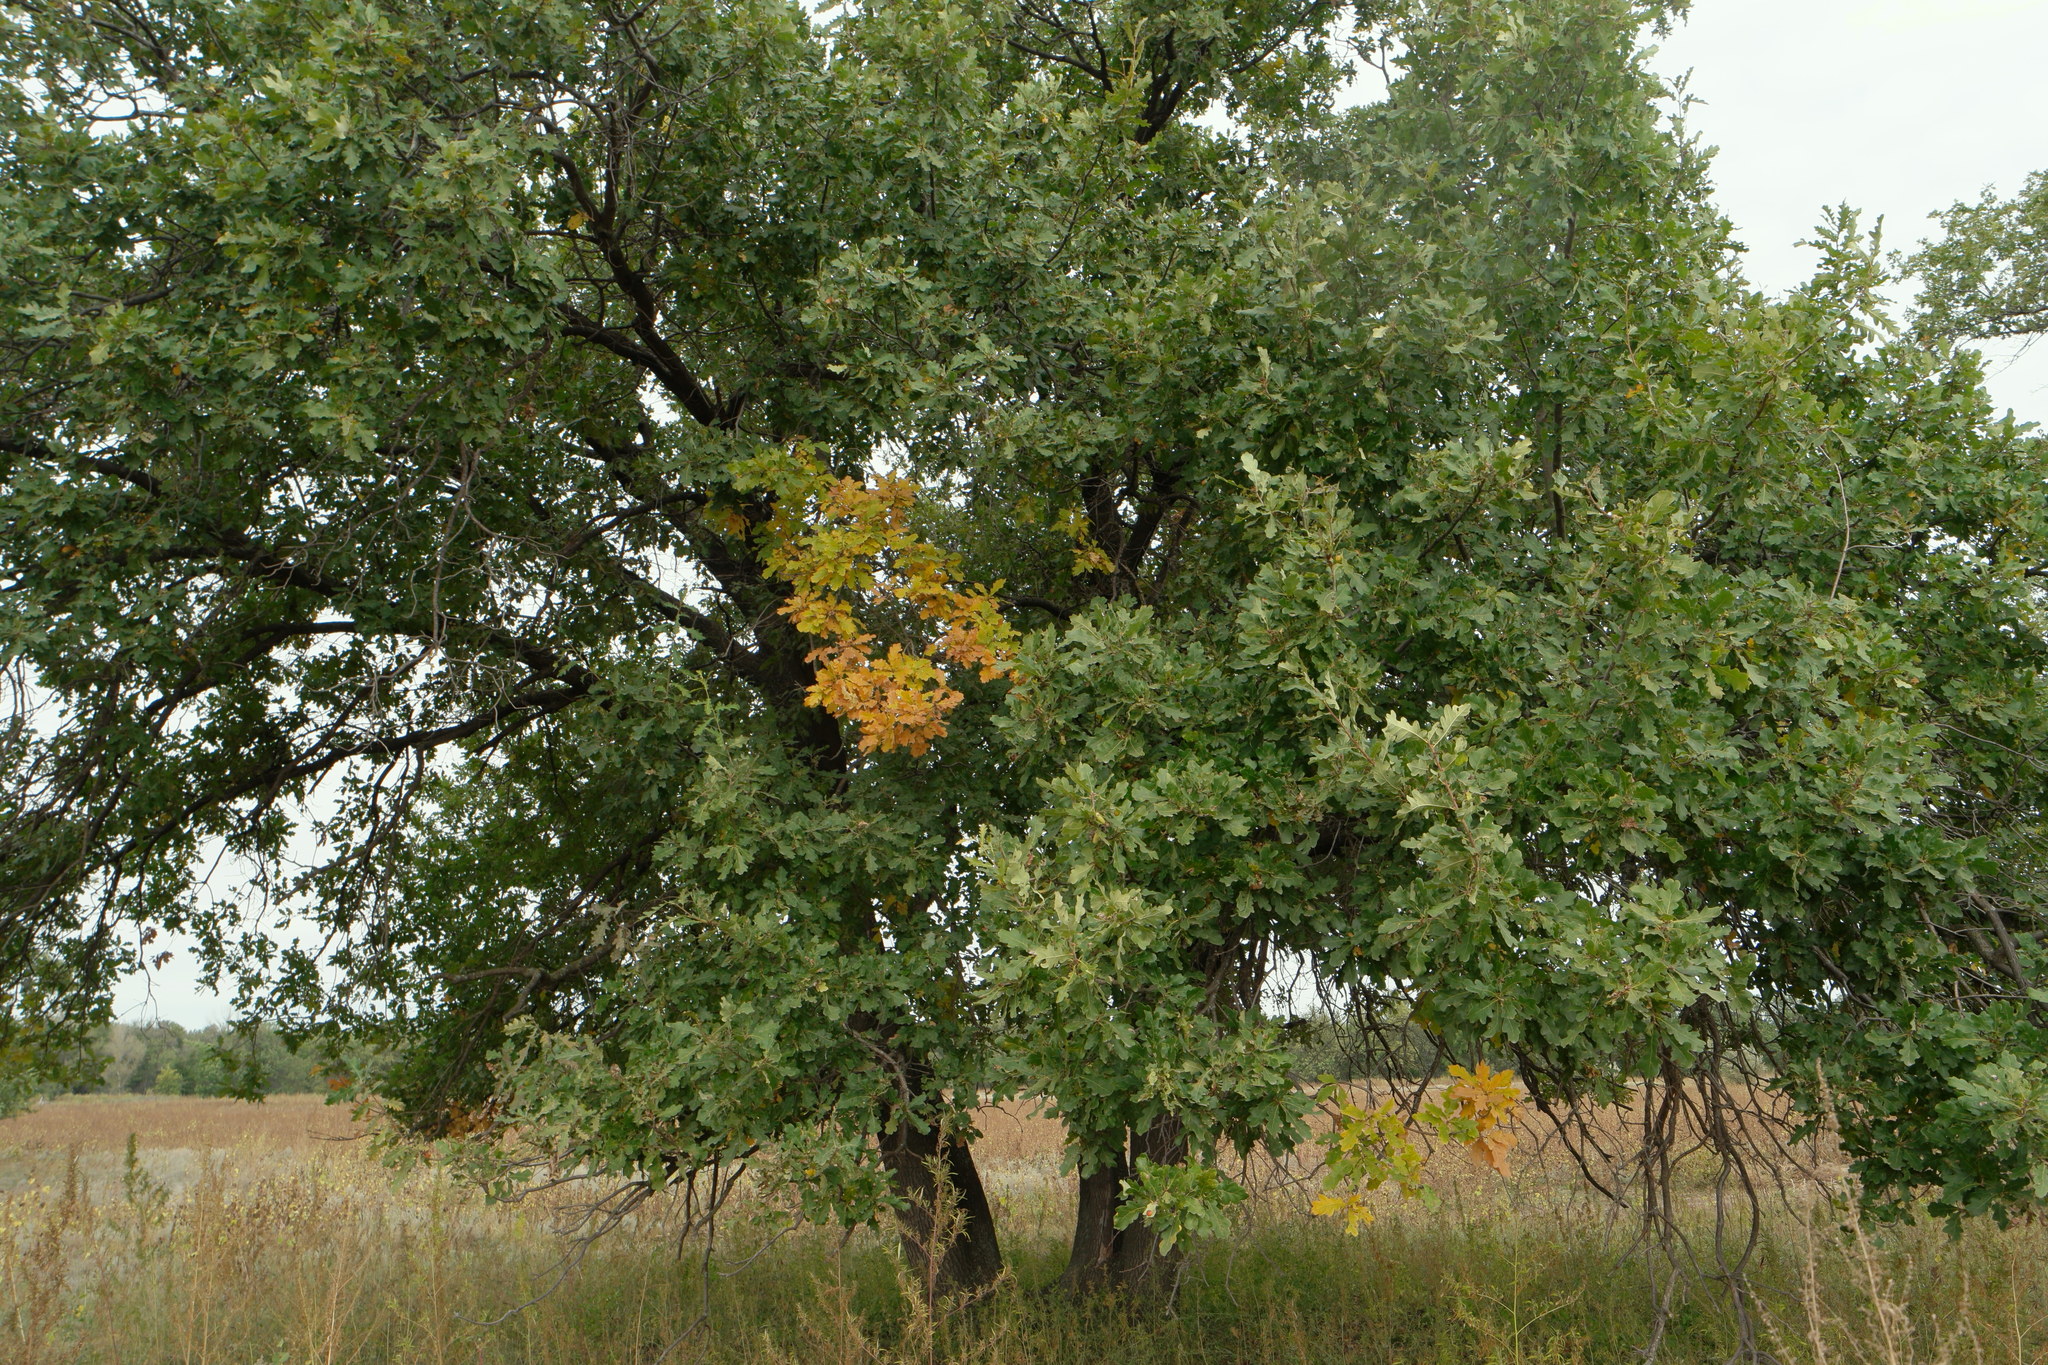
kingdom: Plantae
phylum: Tracheophyta
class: Magnoliopsida
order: Fagales
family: Fagaceae
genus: Quercus
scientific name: Quercus robur
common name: Pedunculate oak
